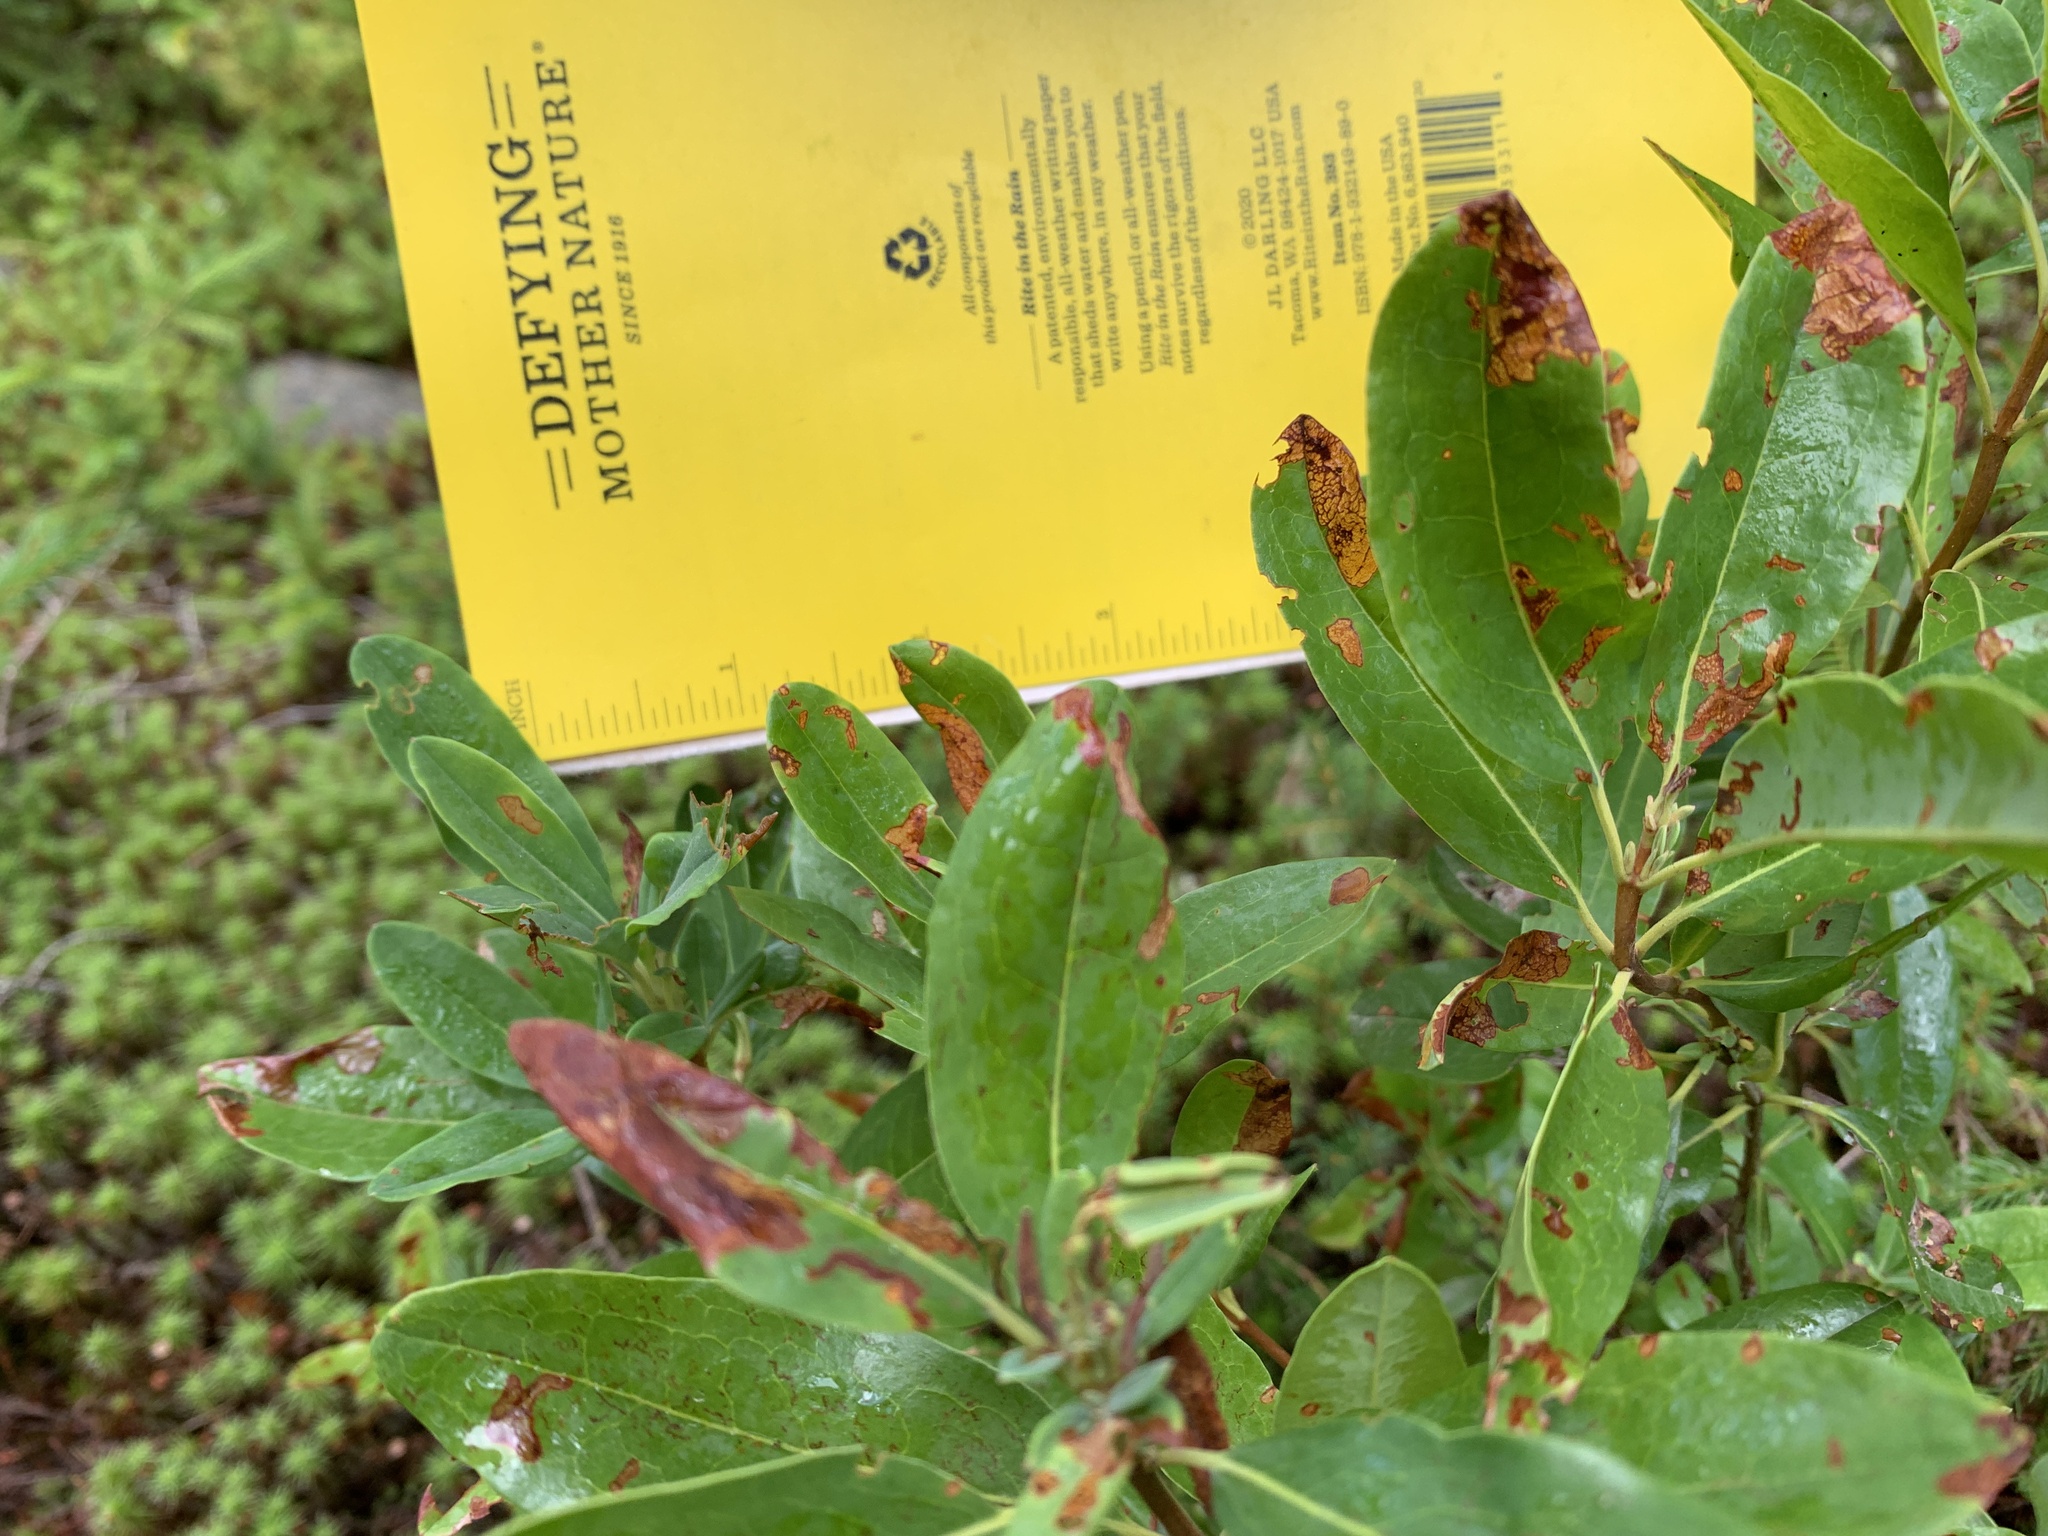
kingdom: Plantae
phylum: Tracheophyta
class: Magnoliopsida
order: Ericales
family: Ericaceae
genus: Kalmia
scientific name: Kalmia angustifolia
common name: Sheep-laurel
